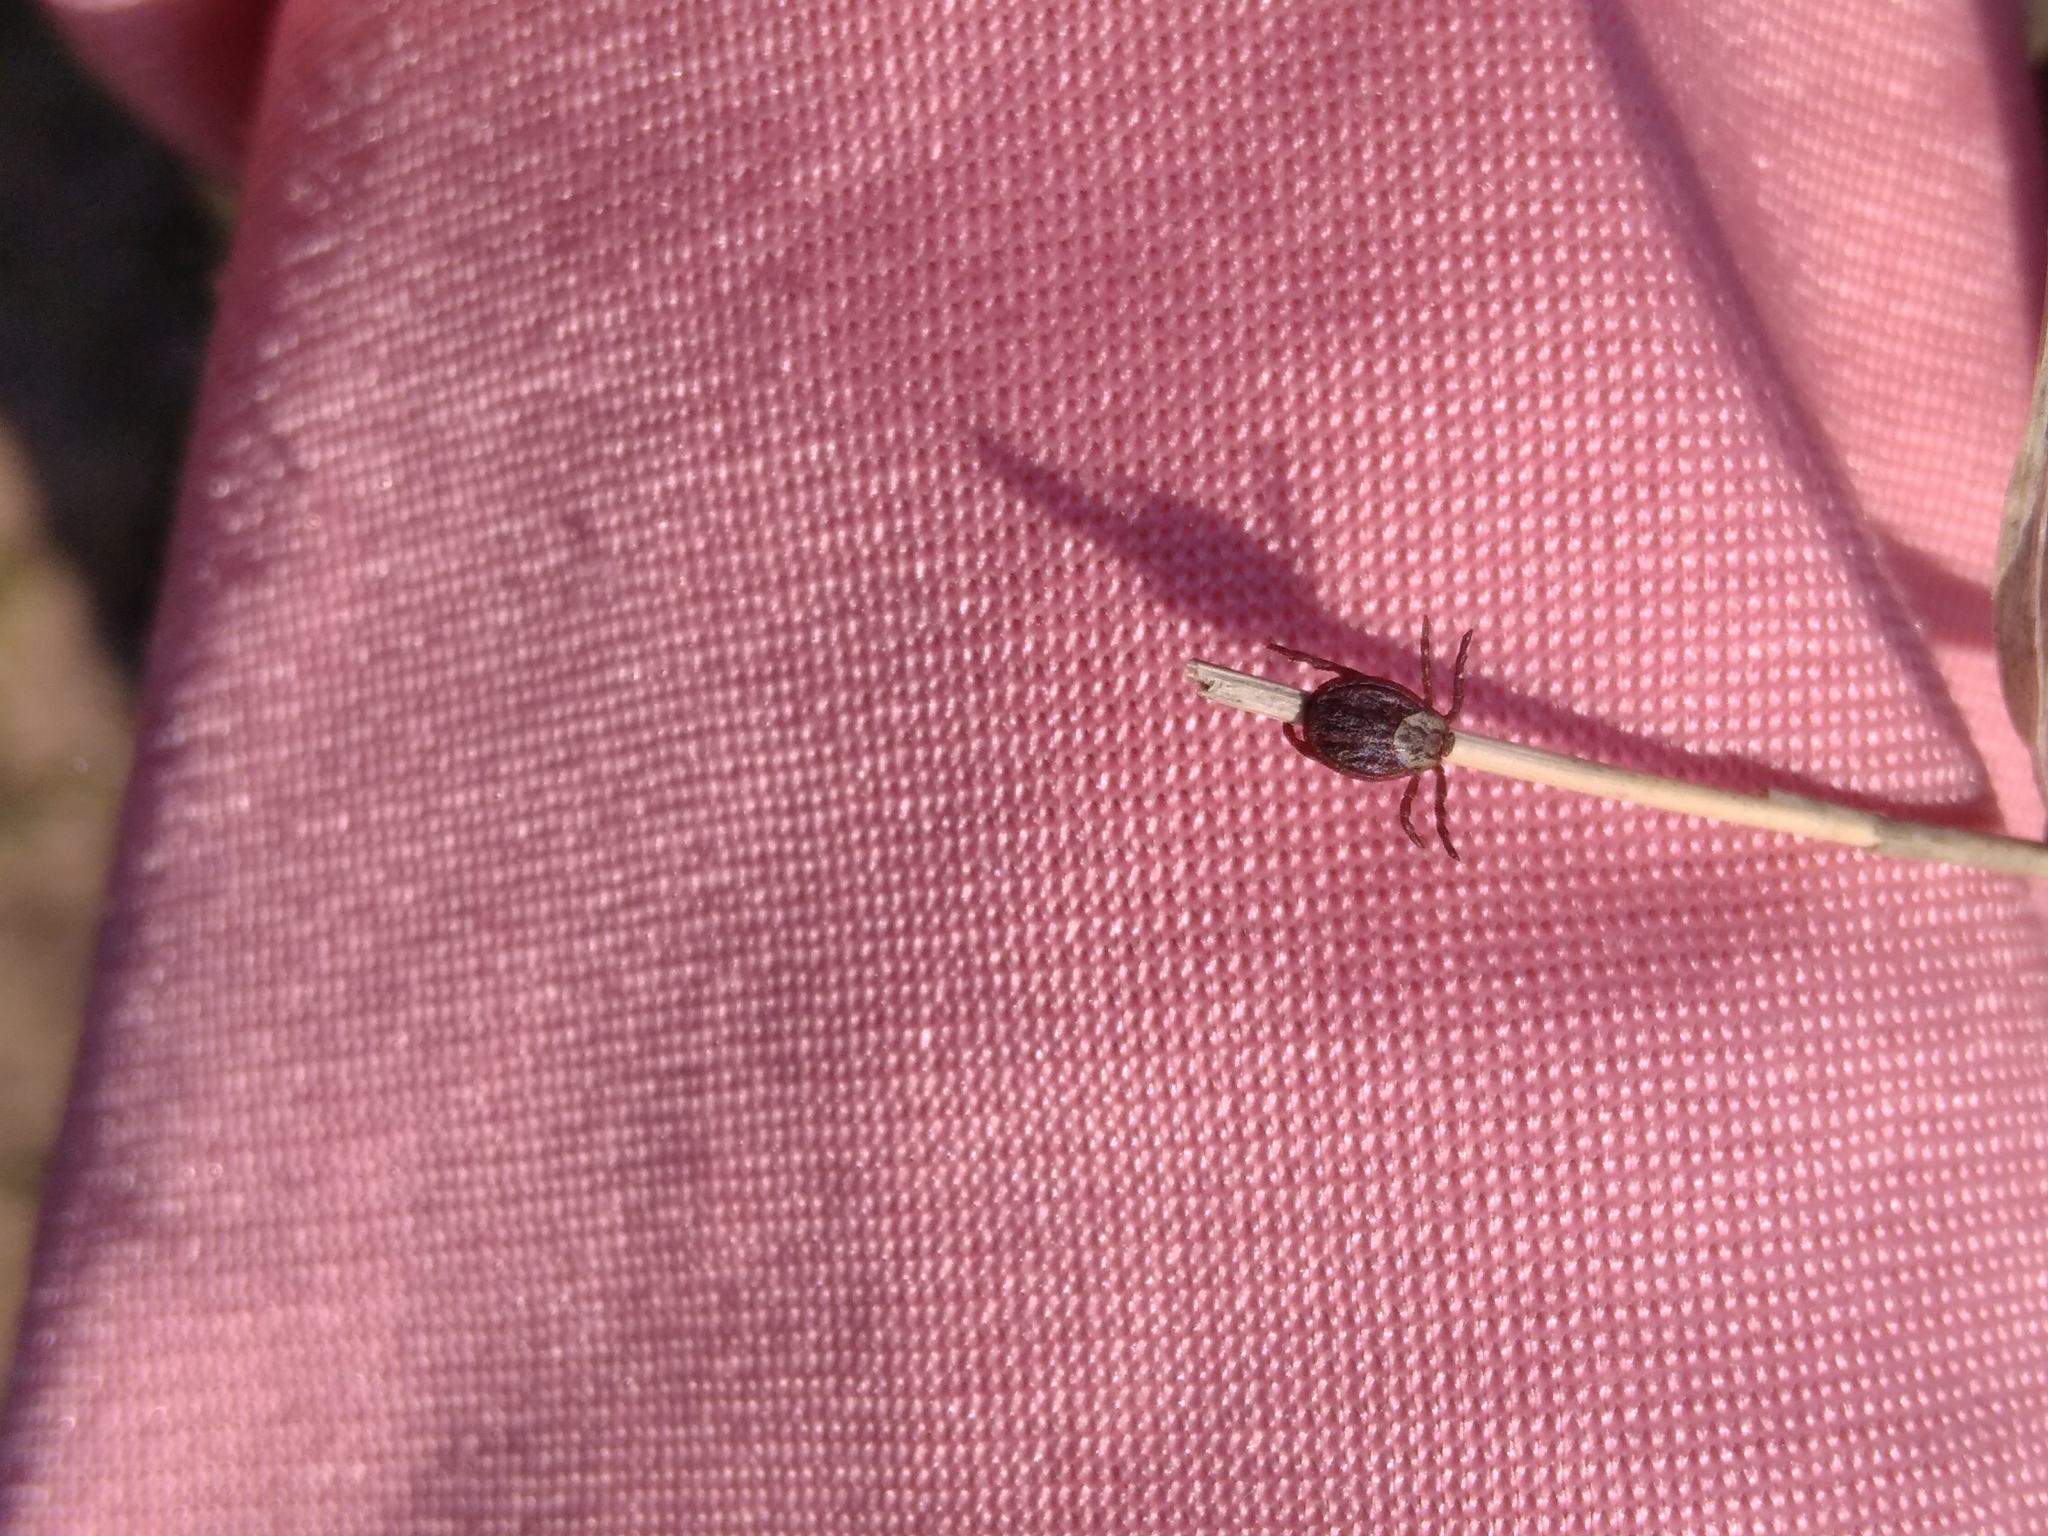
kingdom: Animalia
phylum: Arthropoda
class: Arachnida
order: Ixodida
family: Ixodidae
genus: Dermacentor
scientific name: Dermacentor reticulatus
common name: Ornate cow tick
